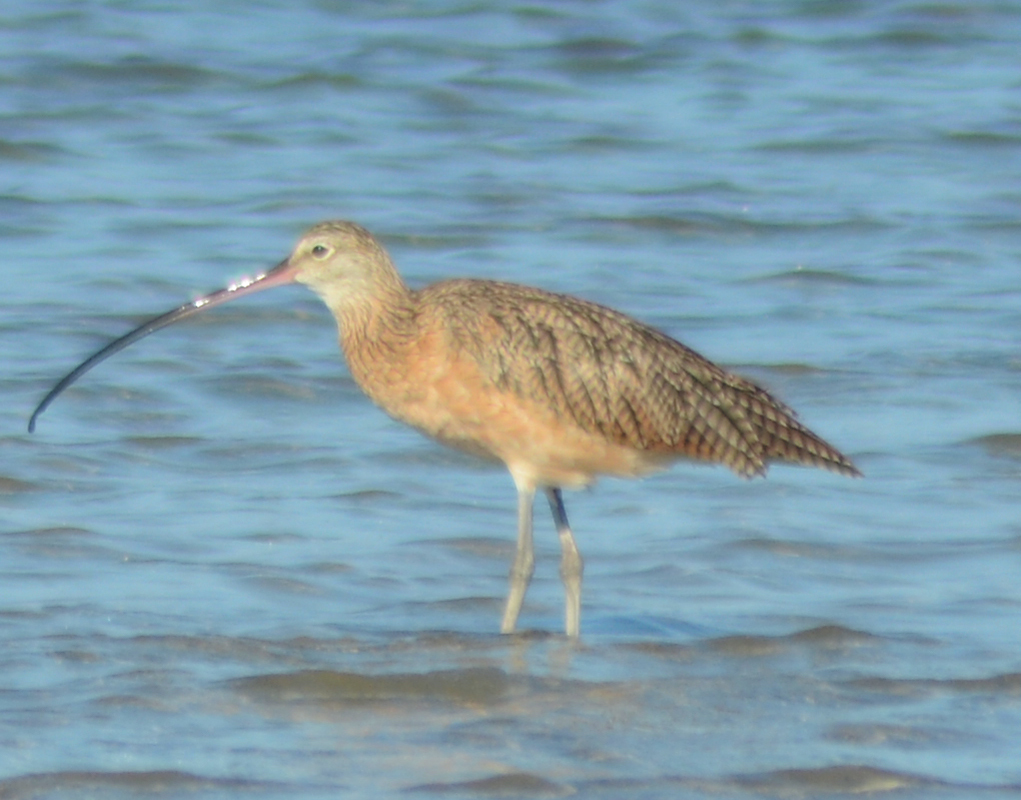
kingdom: Animalia
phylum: Chordata
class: Aves
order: Charadriiformes
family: Scolopacidae
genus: Numenius
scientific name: Numenius americanus
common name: Long-billed curlew
